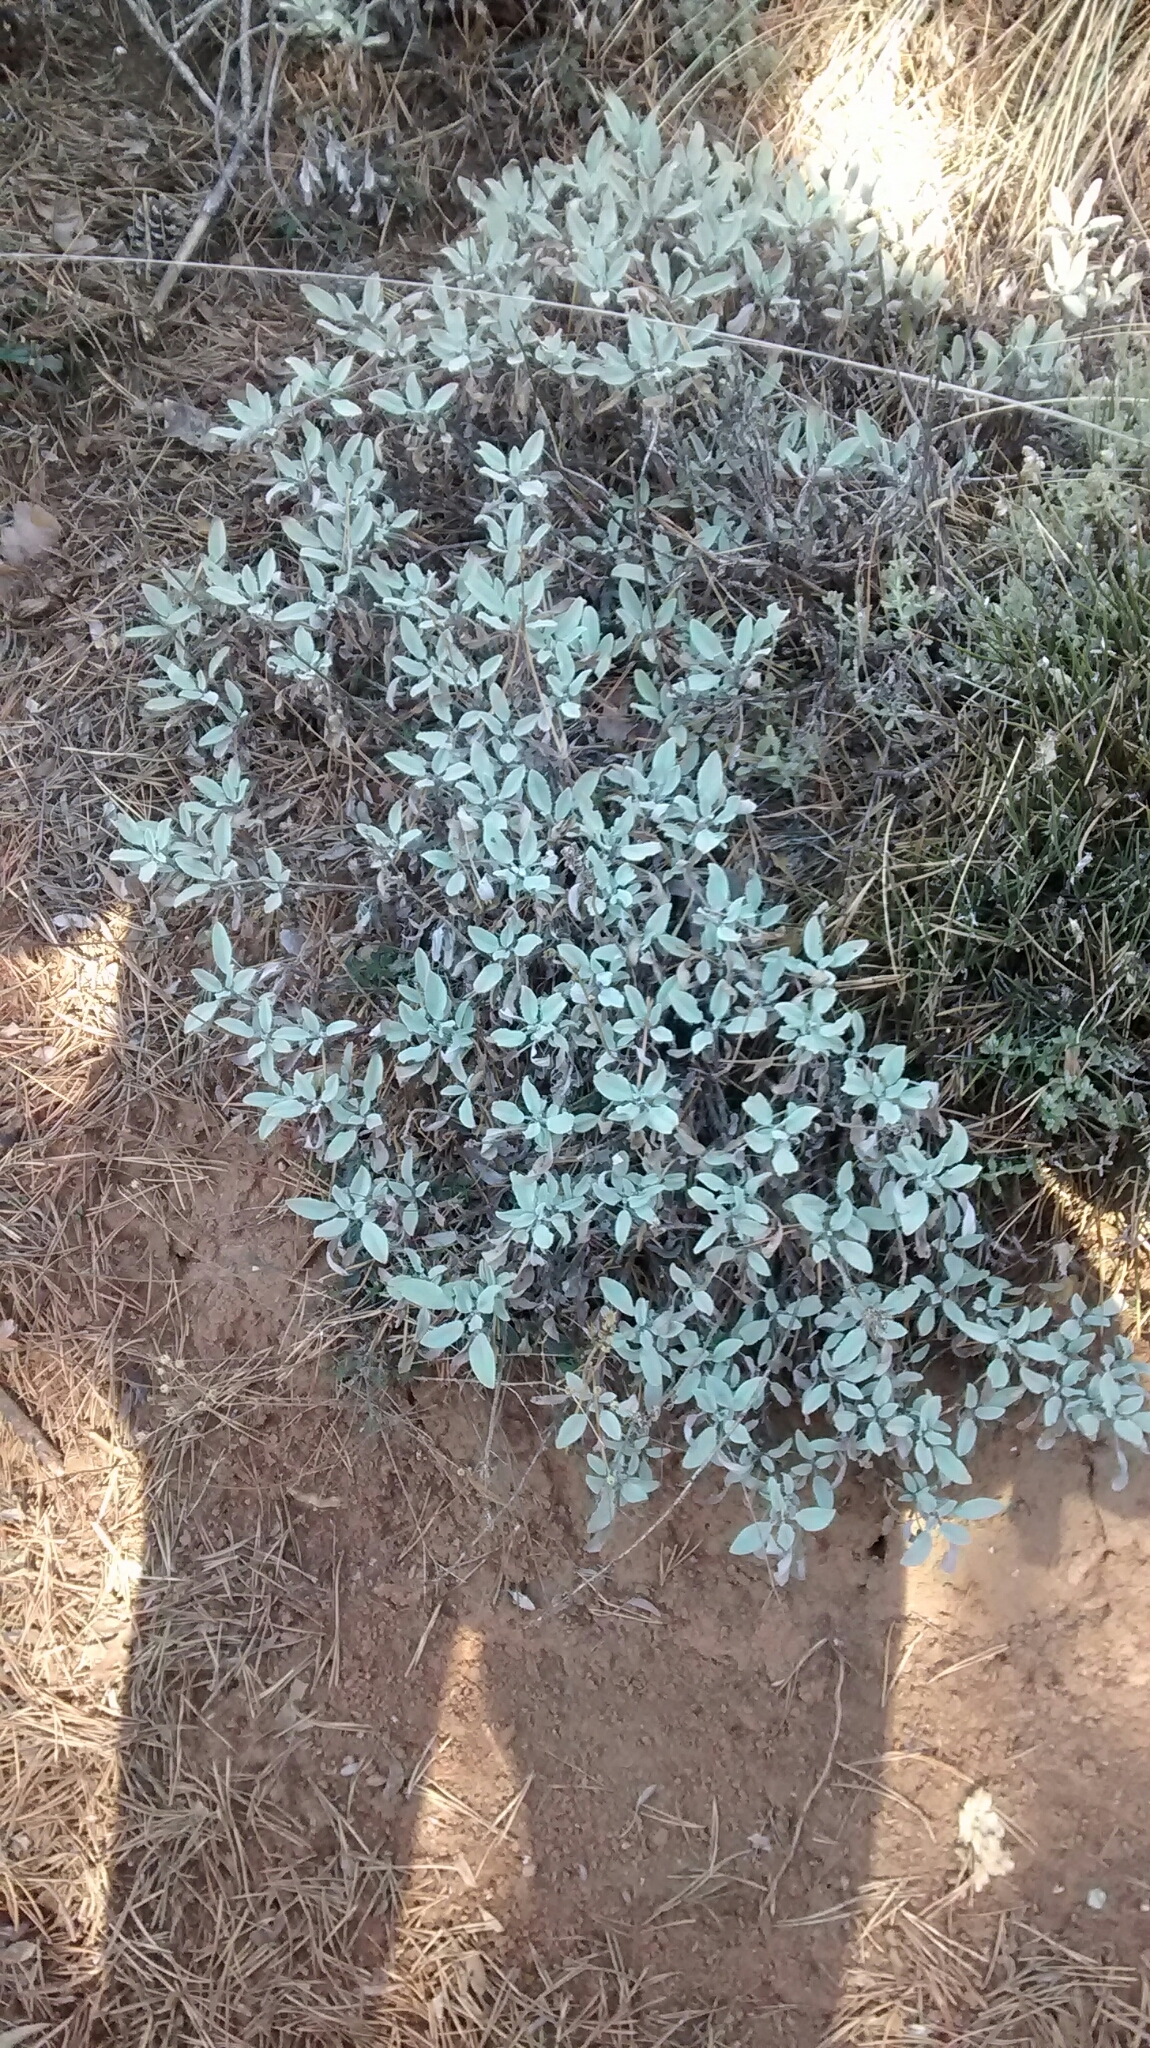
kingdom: Plantae
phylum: Tracheophyta
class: Magnoliopsida
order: Lamiales
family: Lamiaceae
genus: Salvia
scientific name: Salvia officinalis
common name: Sage
